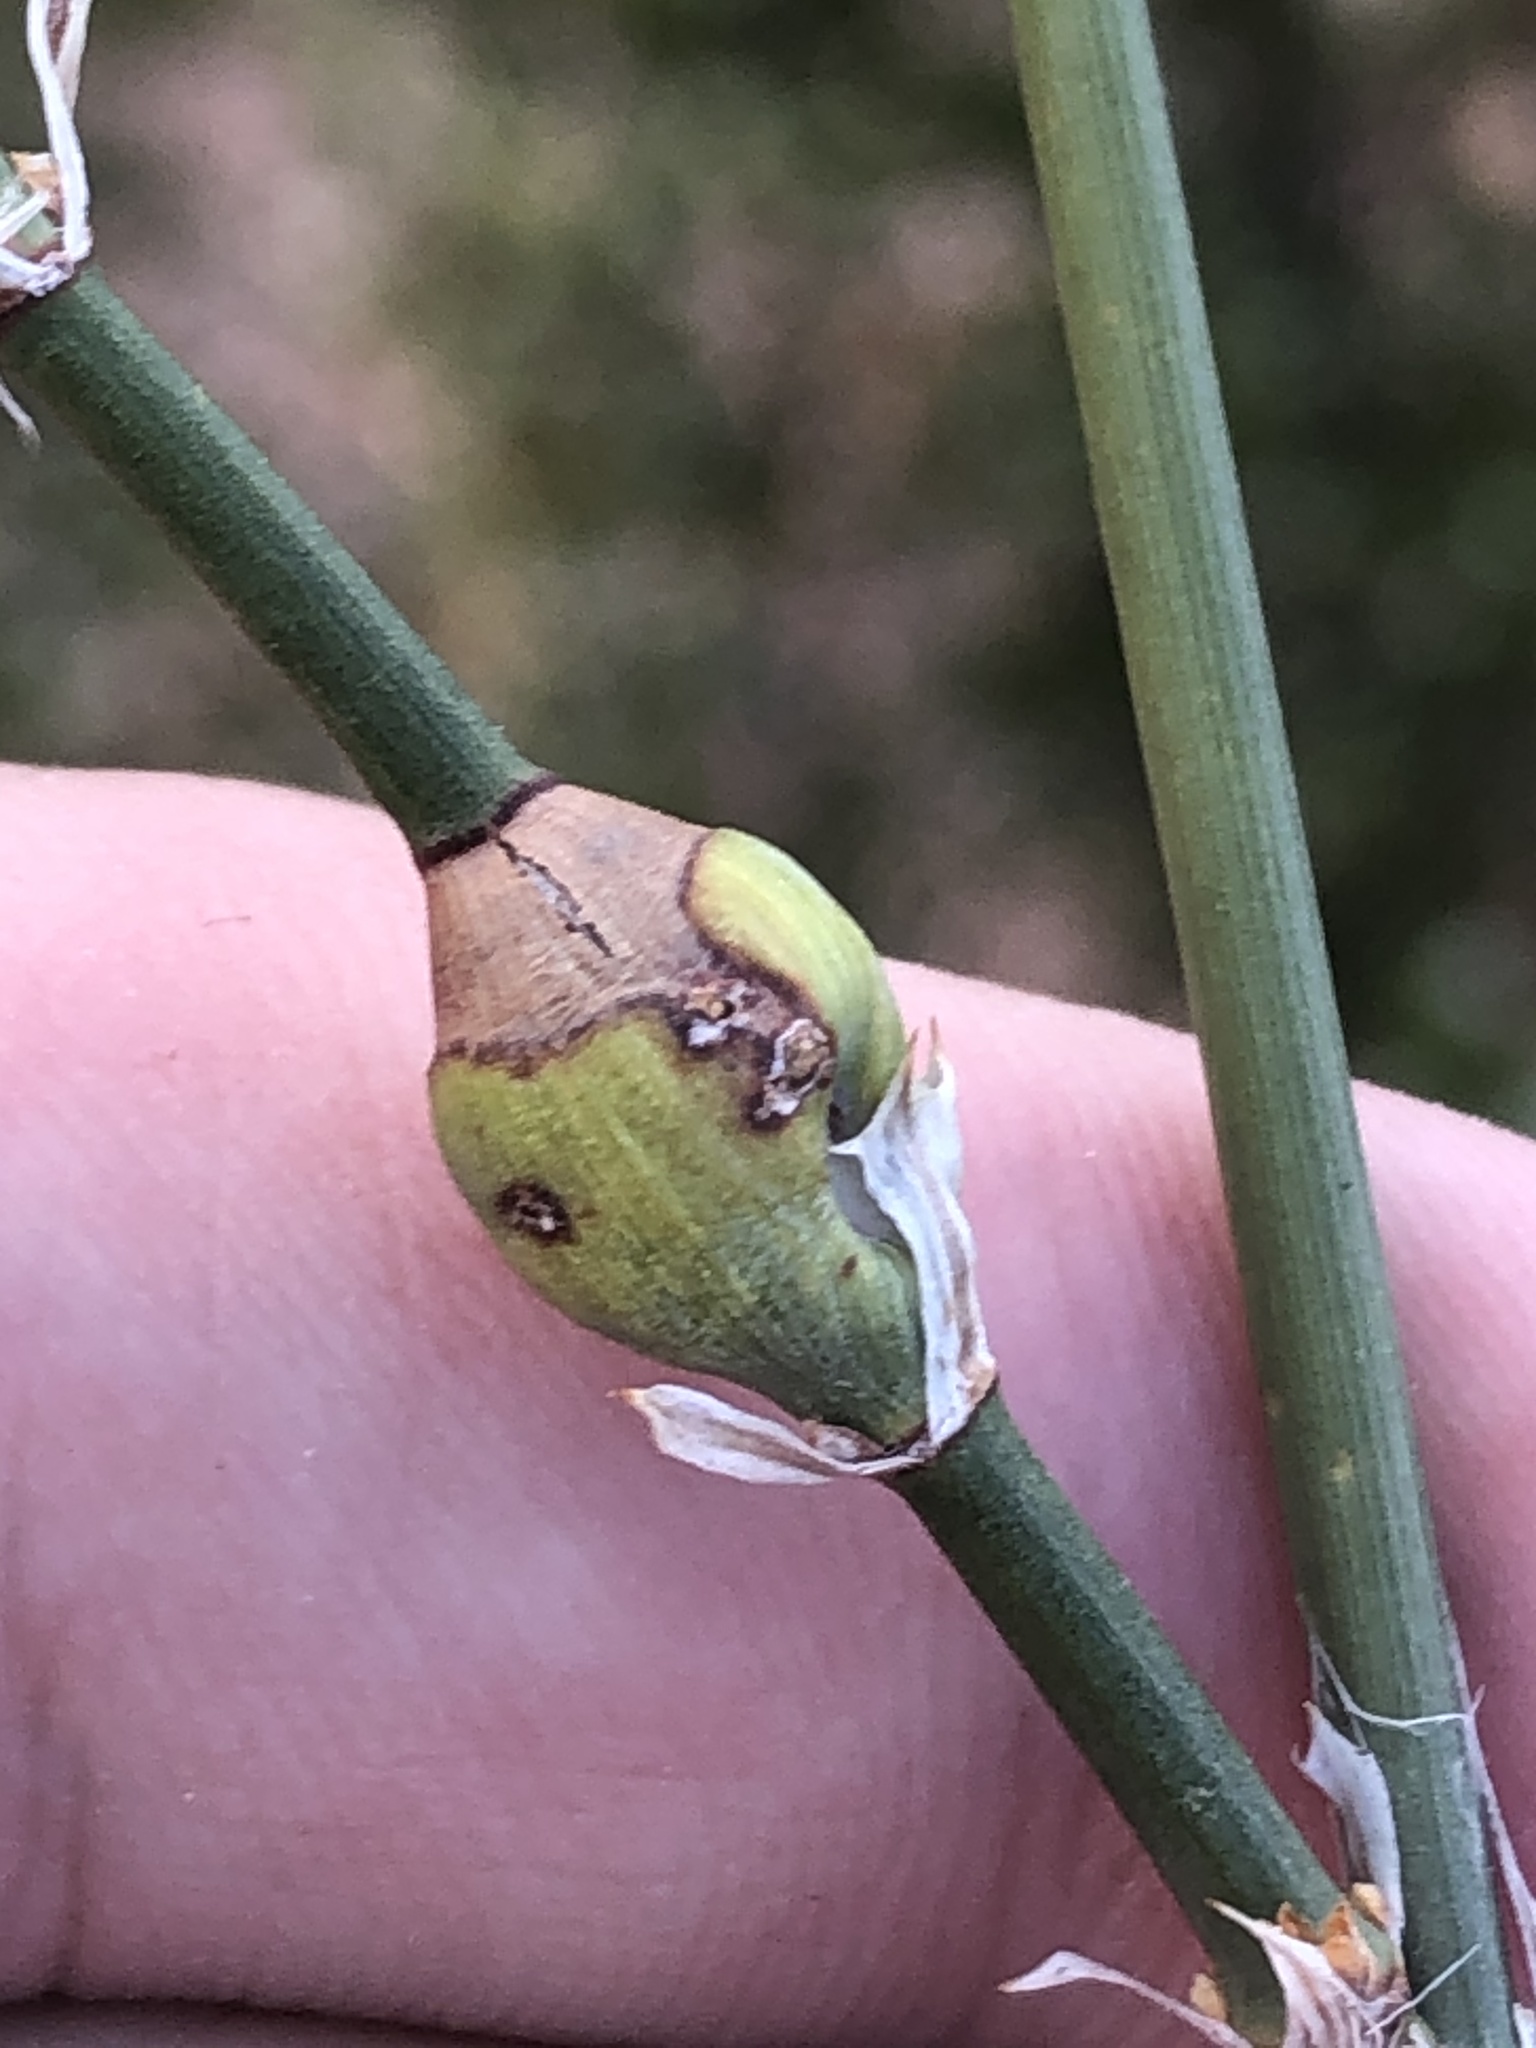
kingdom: Plantae
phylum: Tracheophyta
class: Gnetopsida
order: Ephedrales
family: Ephedraceae
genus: Ephedra
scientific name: Ephedra trifurca
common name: Mexican-tea
